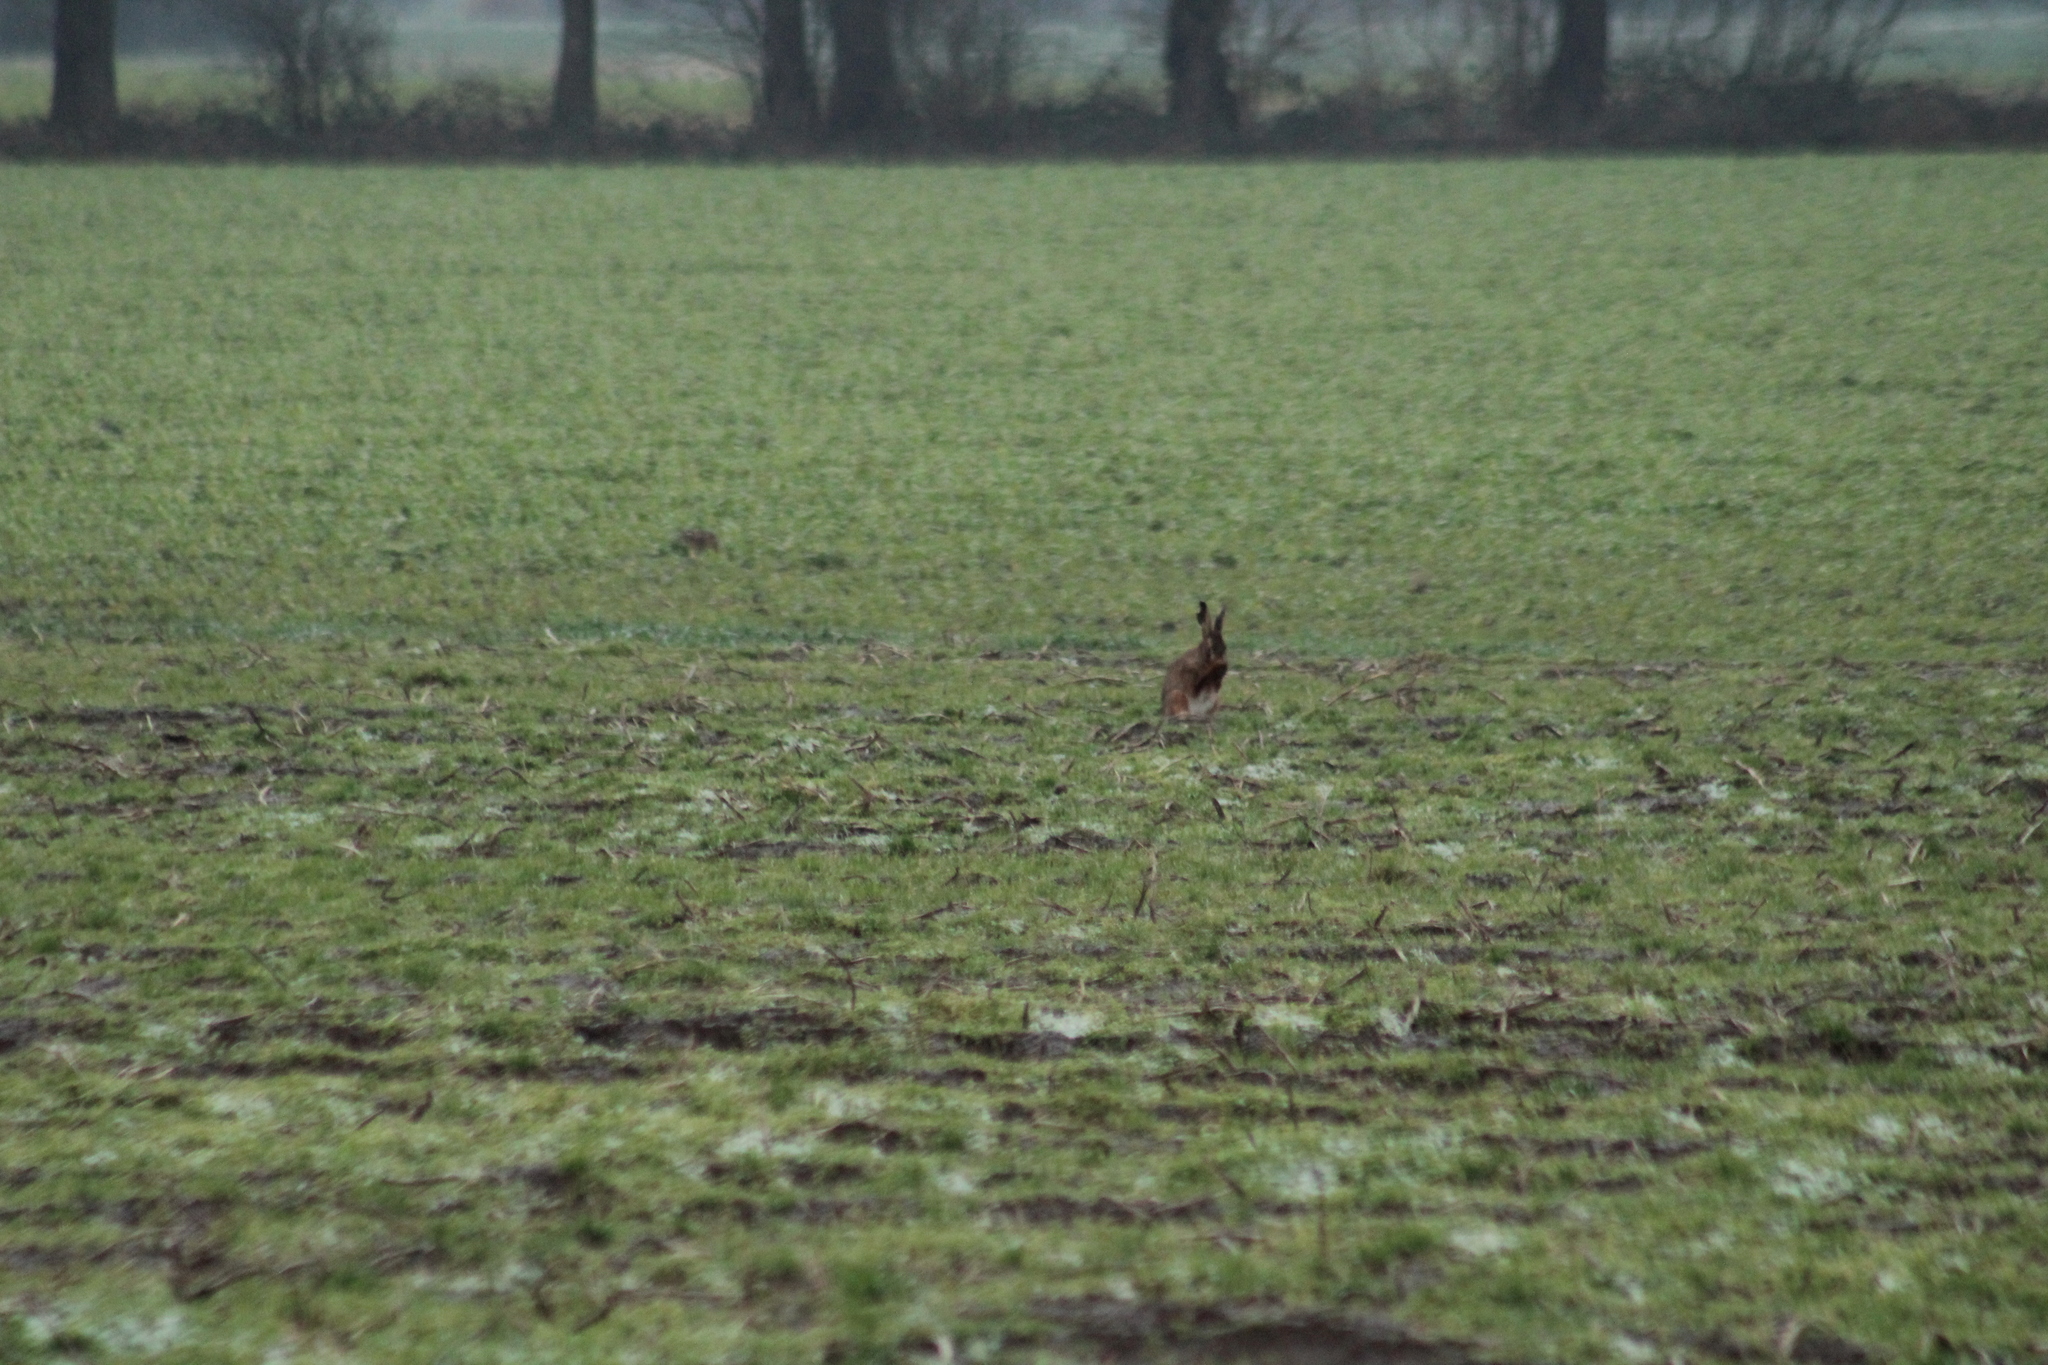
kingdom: Animalia
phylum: Chordata
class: Mammalia
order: Lagomorpha
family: Leporidae
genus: Lepus
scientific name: Lepus europaeus
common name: European hare
